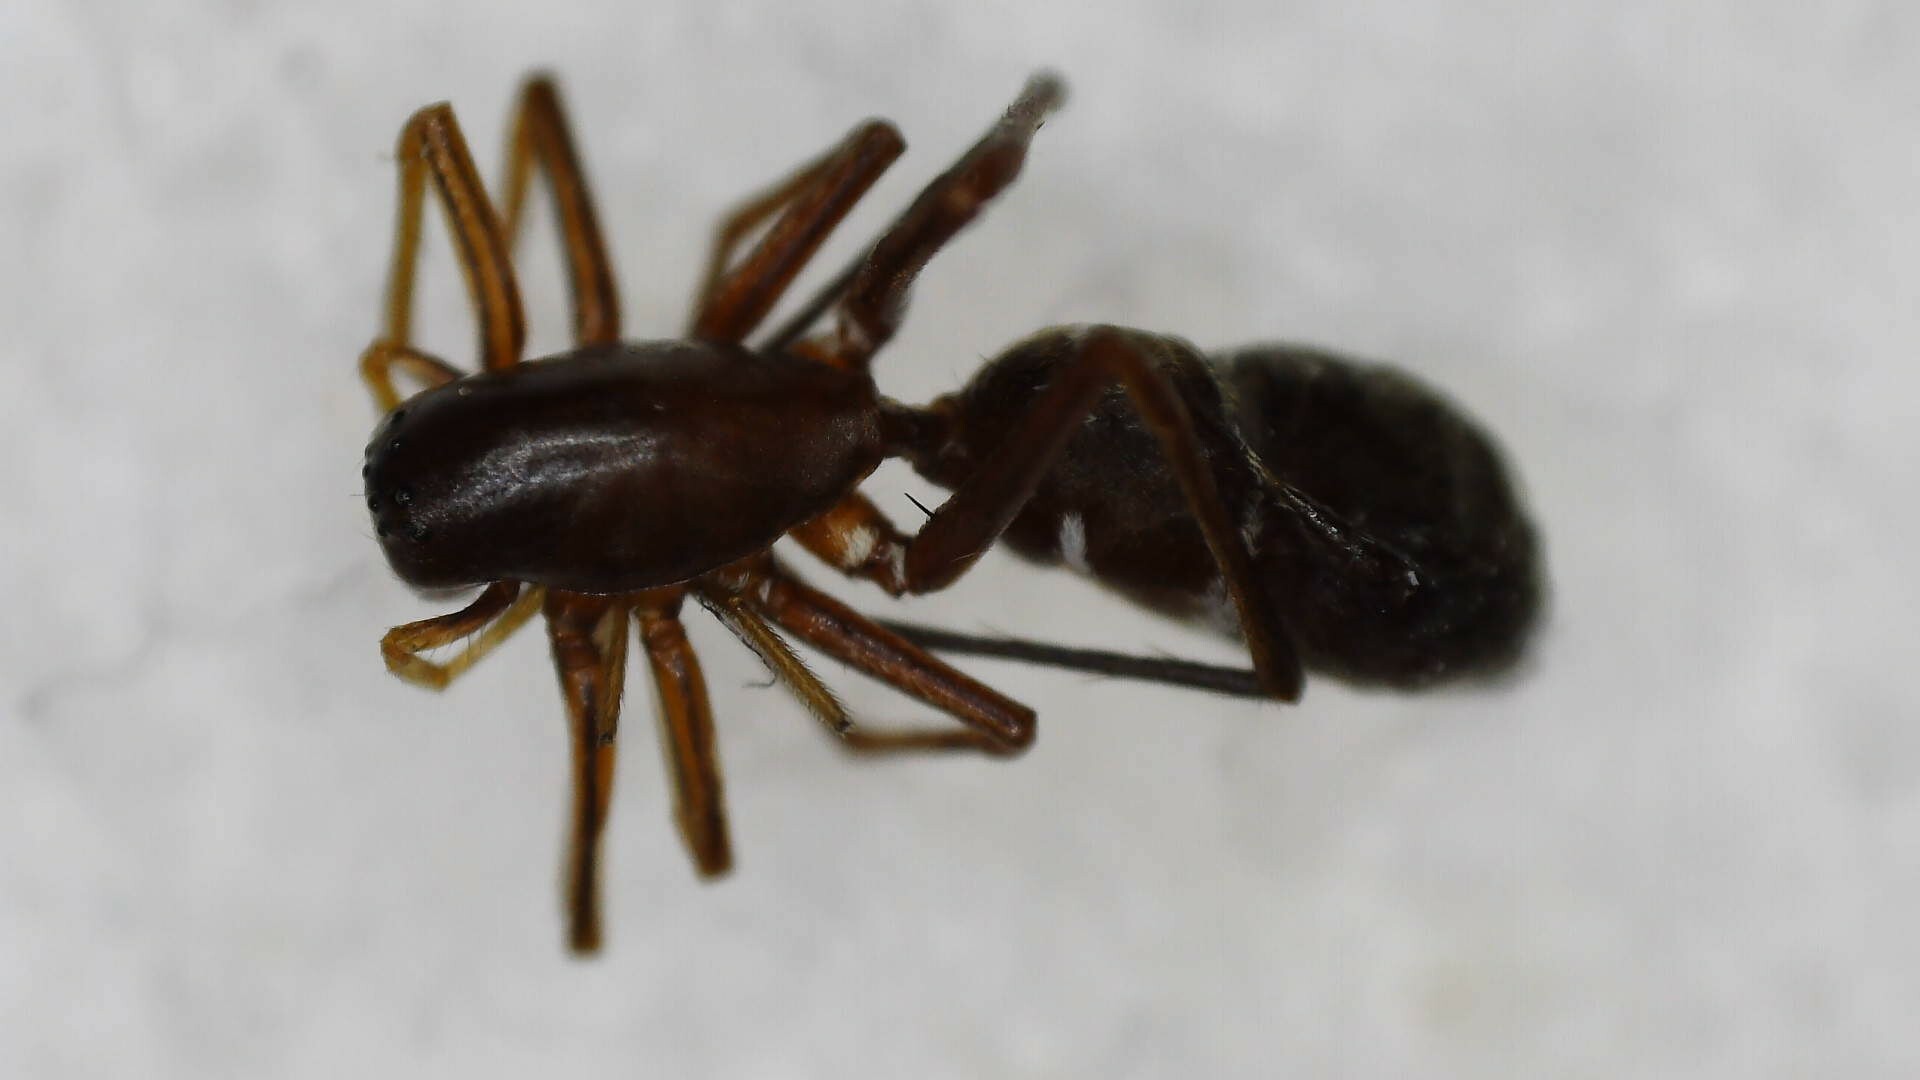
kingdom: Animalia
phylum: Arthropoda
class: Arachnida
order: Araneae
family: Corinnidae
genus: Myrmecotypus
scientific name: Myrmecotypus lineatus
